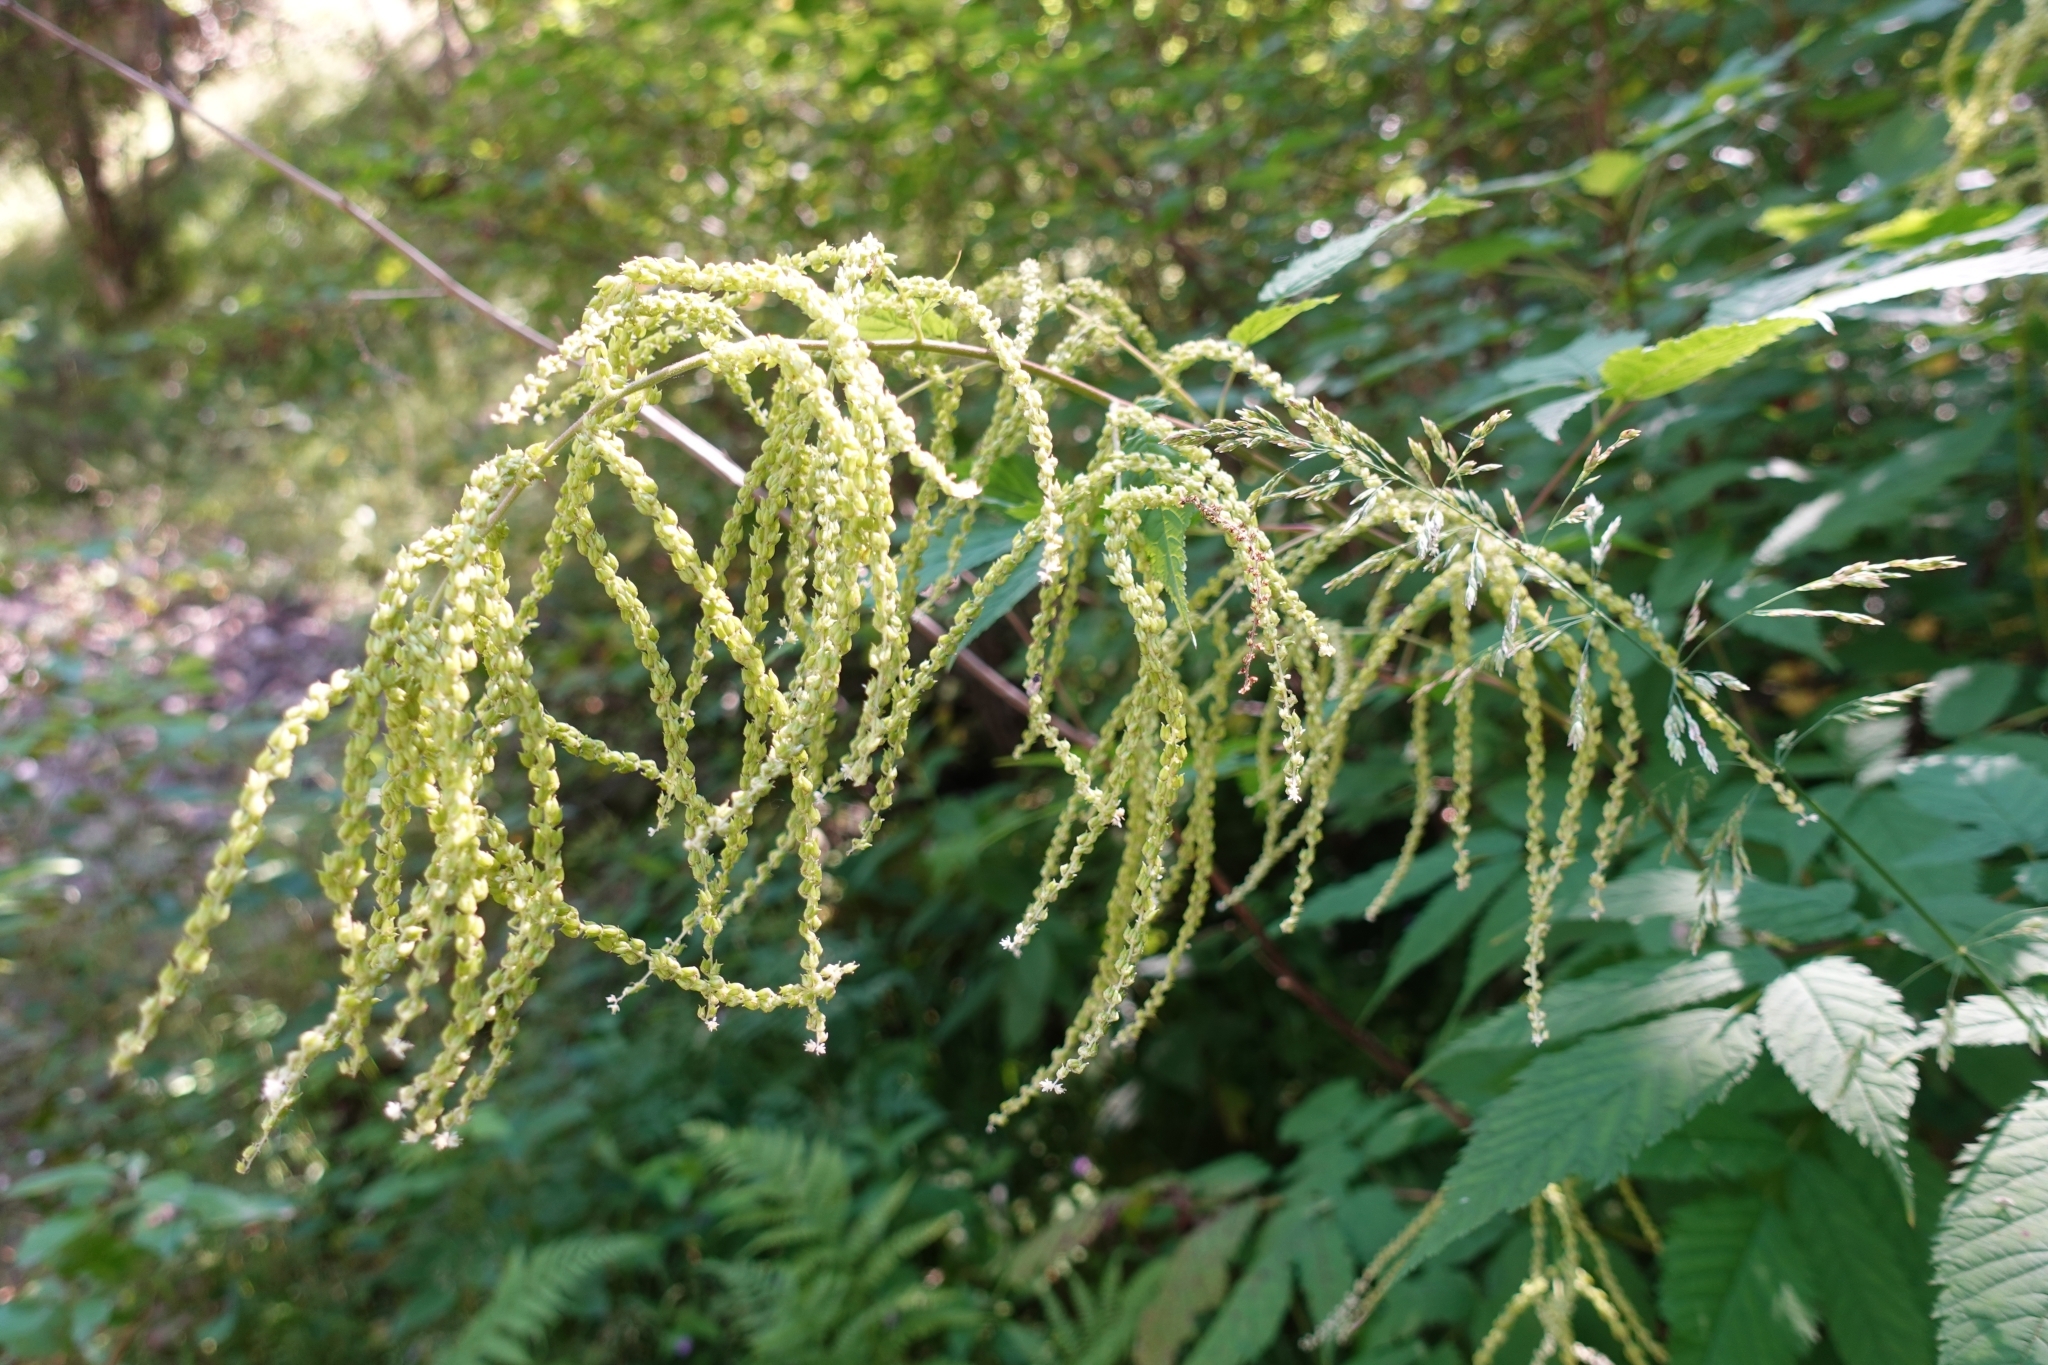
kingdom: Plantae
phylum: Tracheophyta
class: Magnoliopsida
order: Rosales
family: Rosaceae
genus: Aruncus
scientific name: Aruncus dioicus
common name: Buck's-beard
